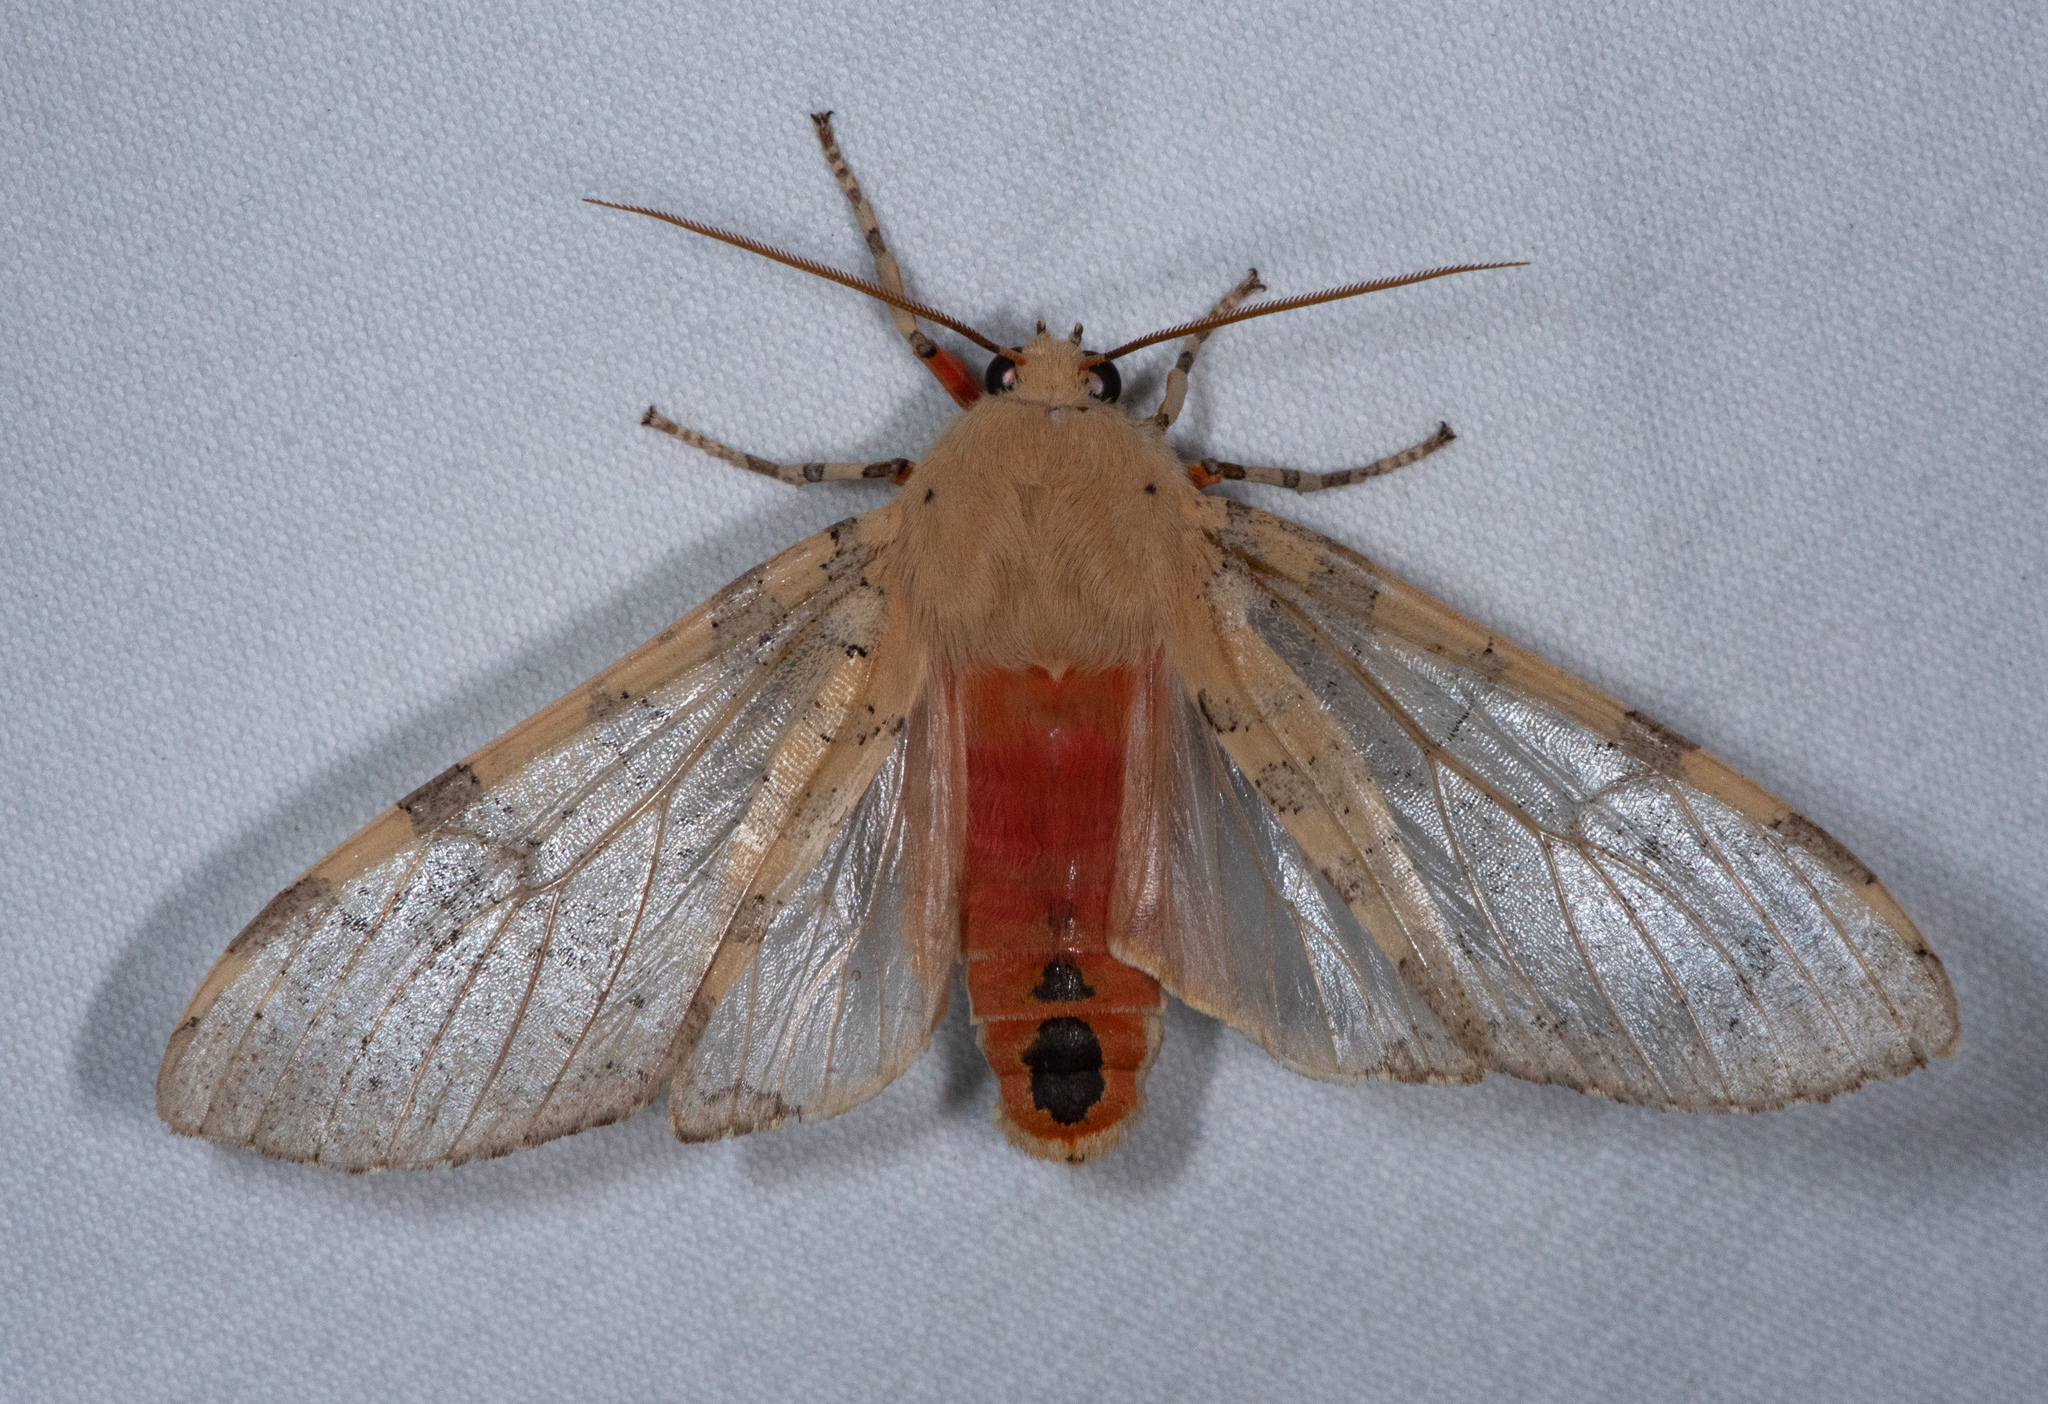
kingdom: Animalia
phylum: Arthropoda
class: Insecta
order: Lepidoptera
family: Erebidae
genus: Hemihyalea
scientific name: Hemihyalea edwardsii
